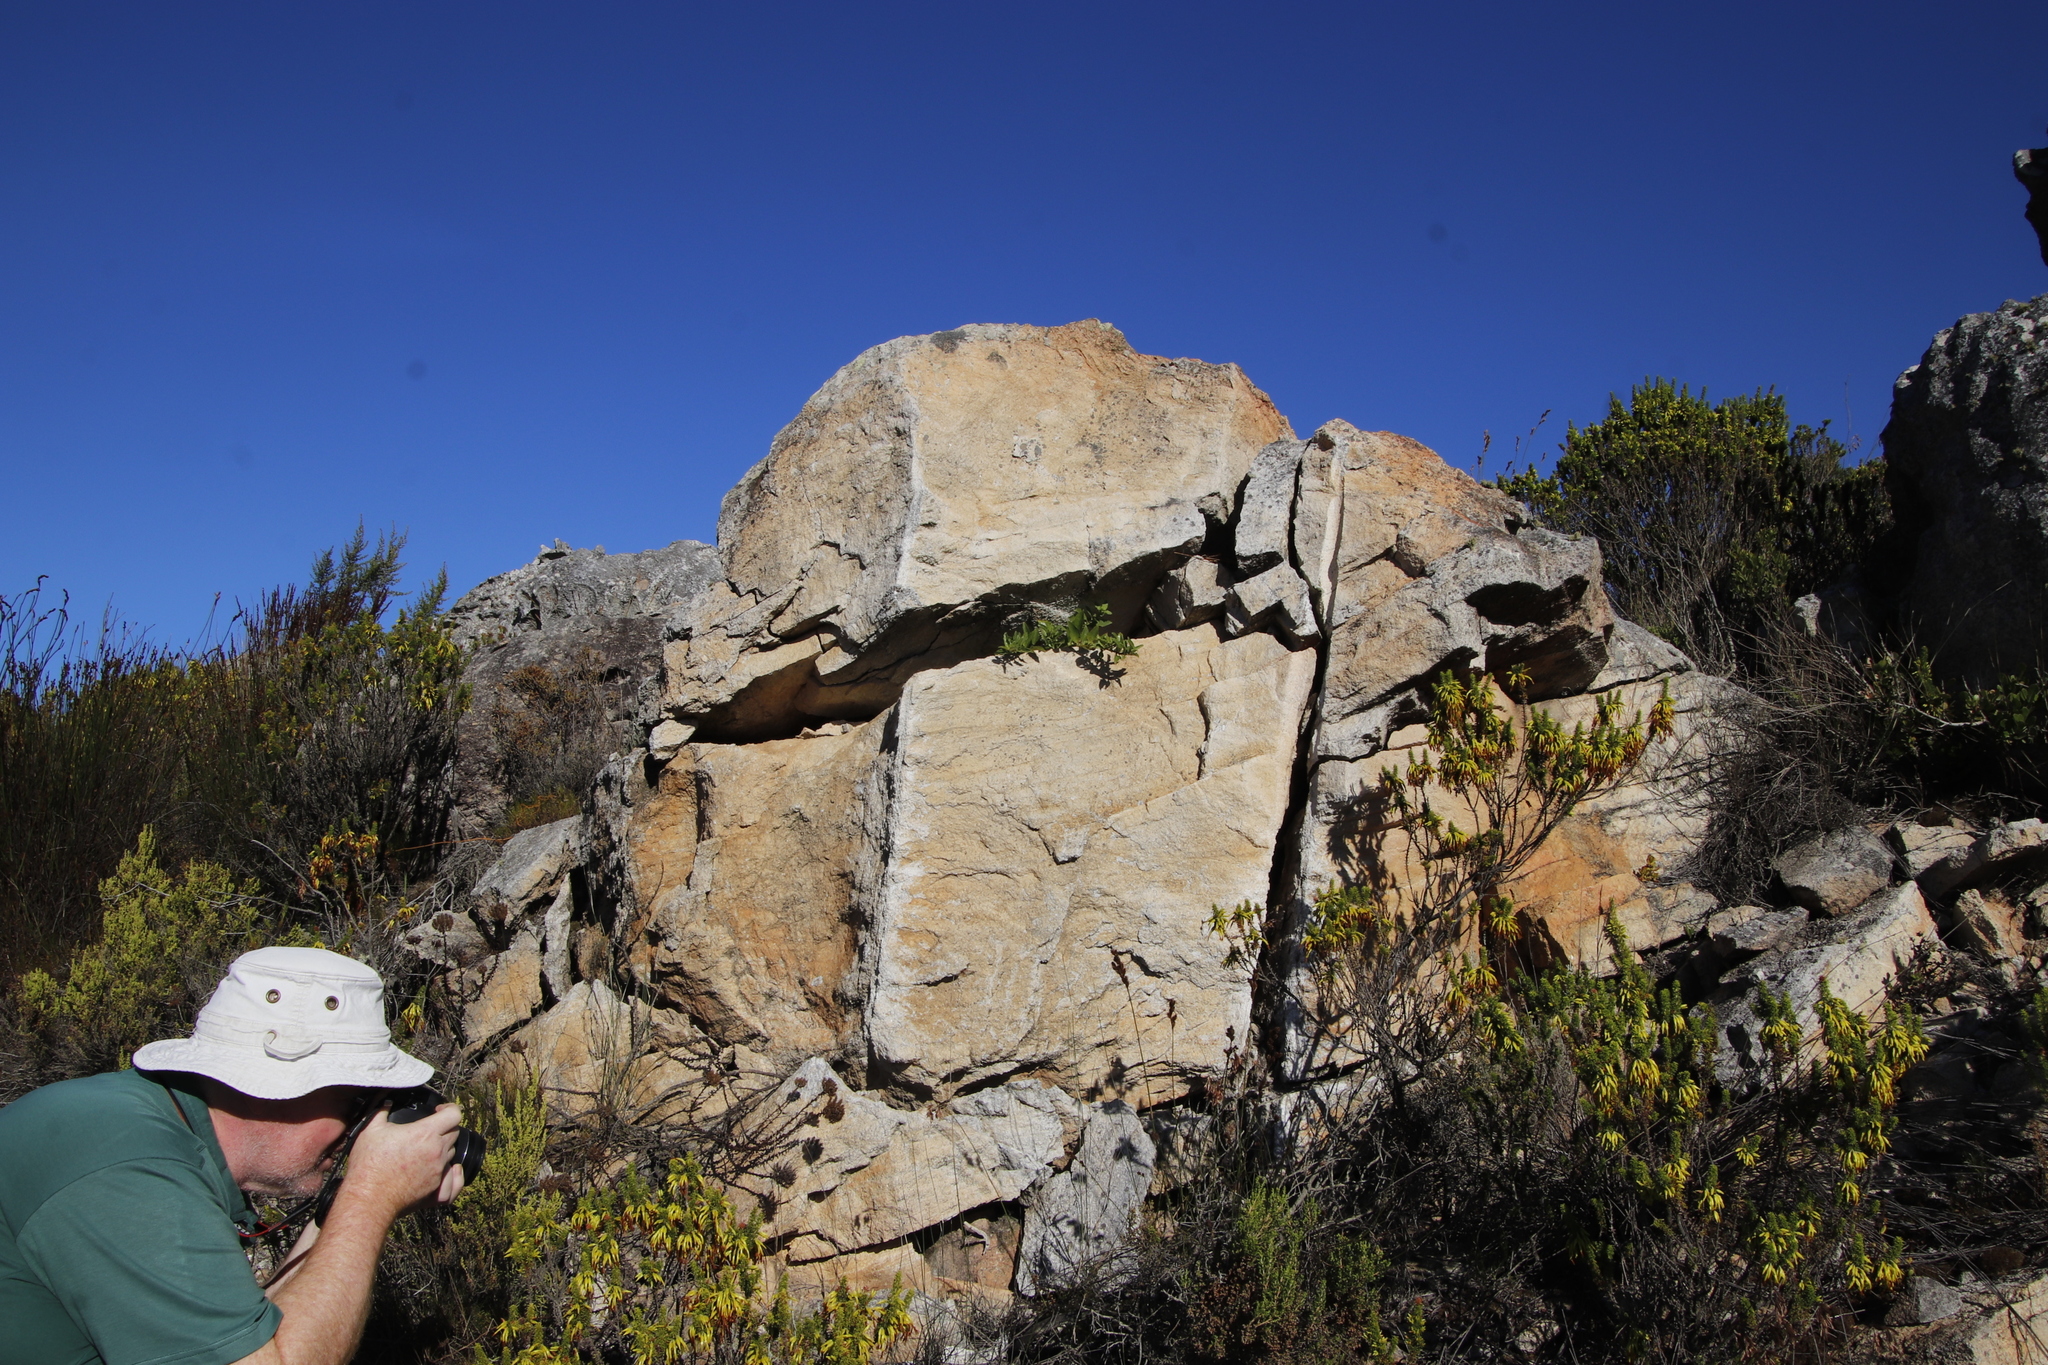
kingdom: Plantae
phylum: Tracheophyta
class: Magnoliopsida
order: Lamiales
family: Scrophulariaceae
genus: Teedia
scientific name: Teedia lucida
